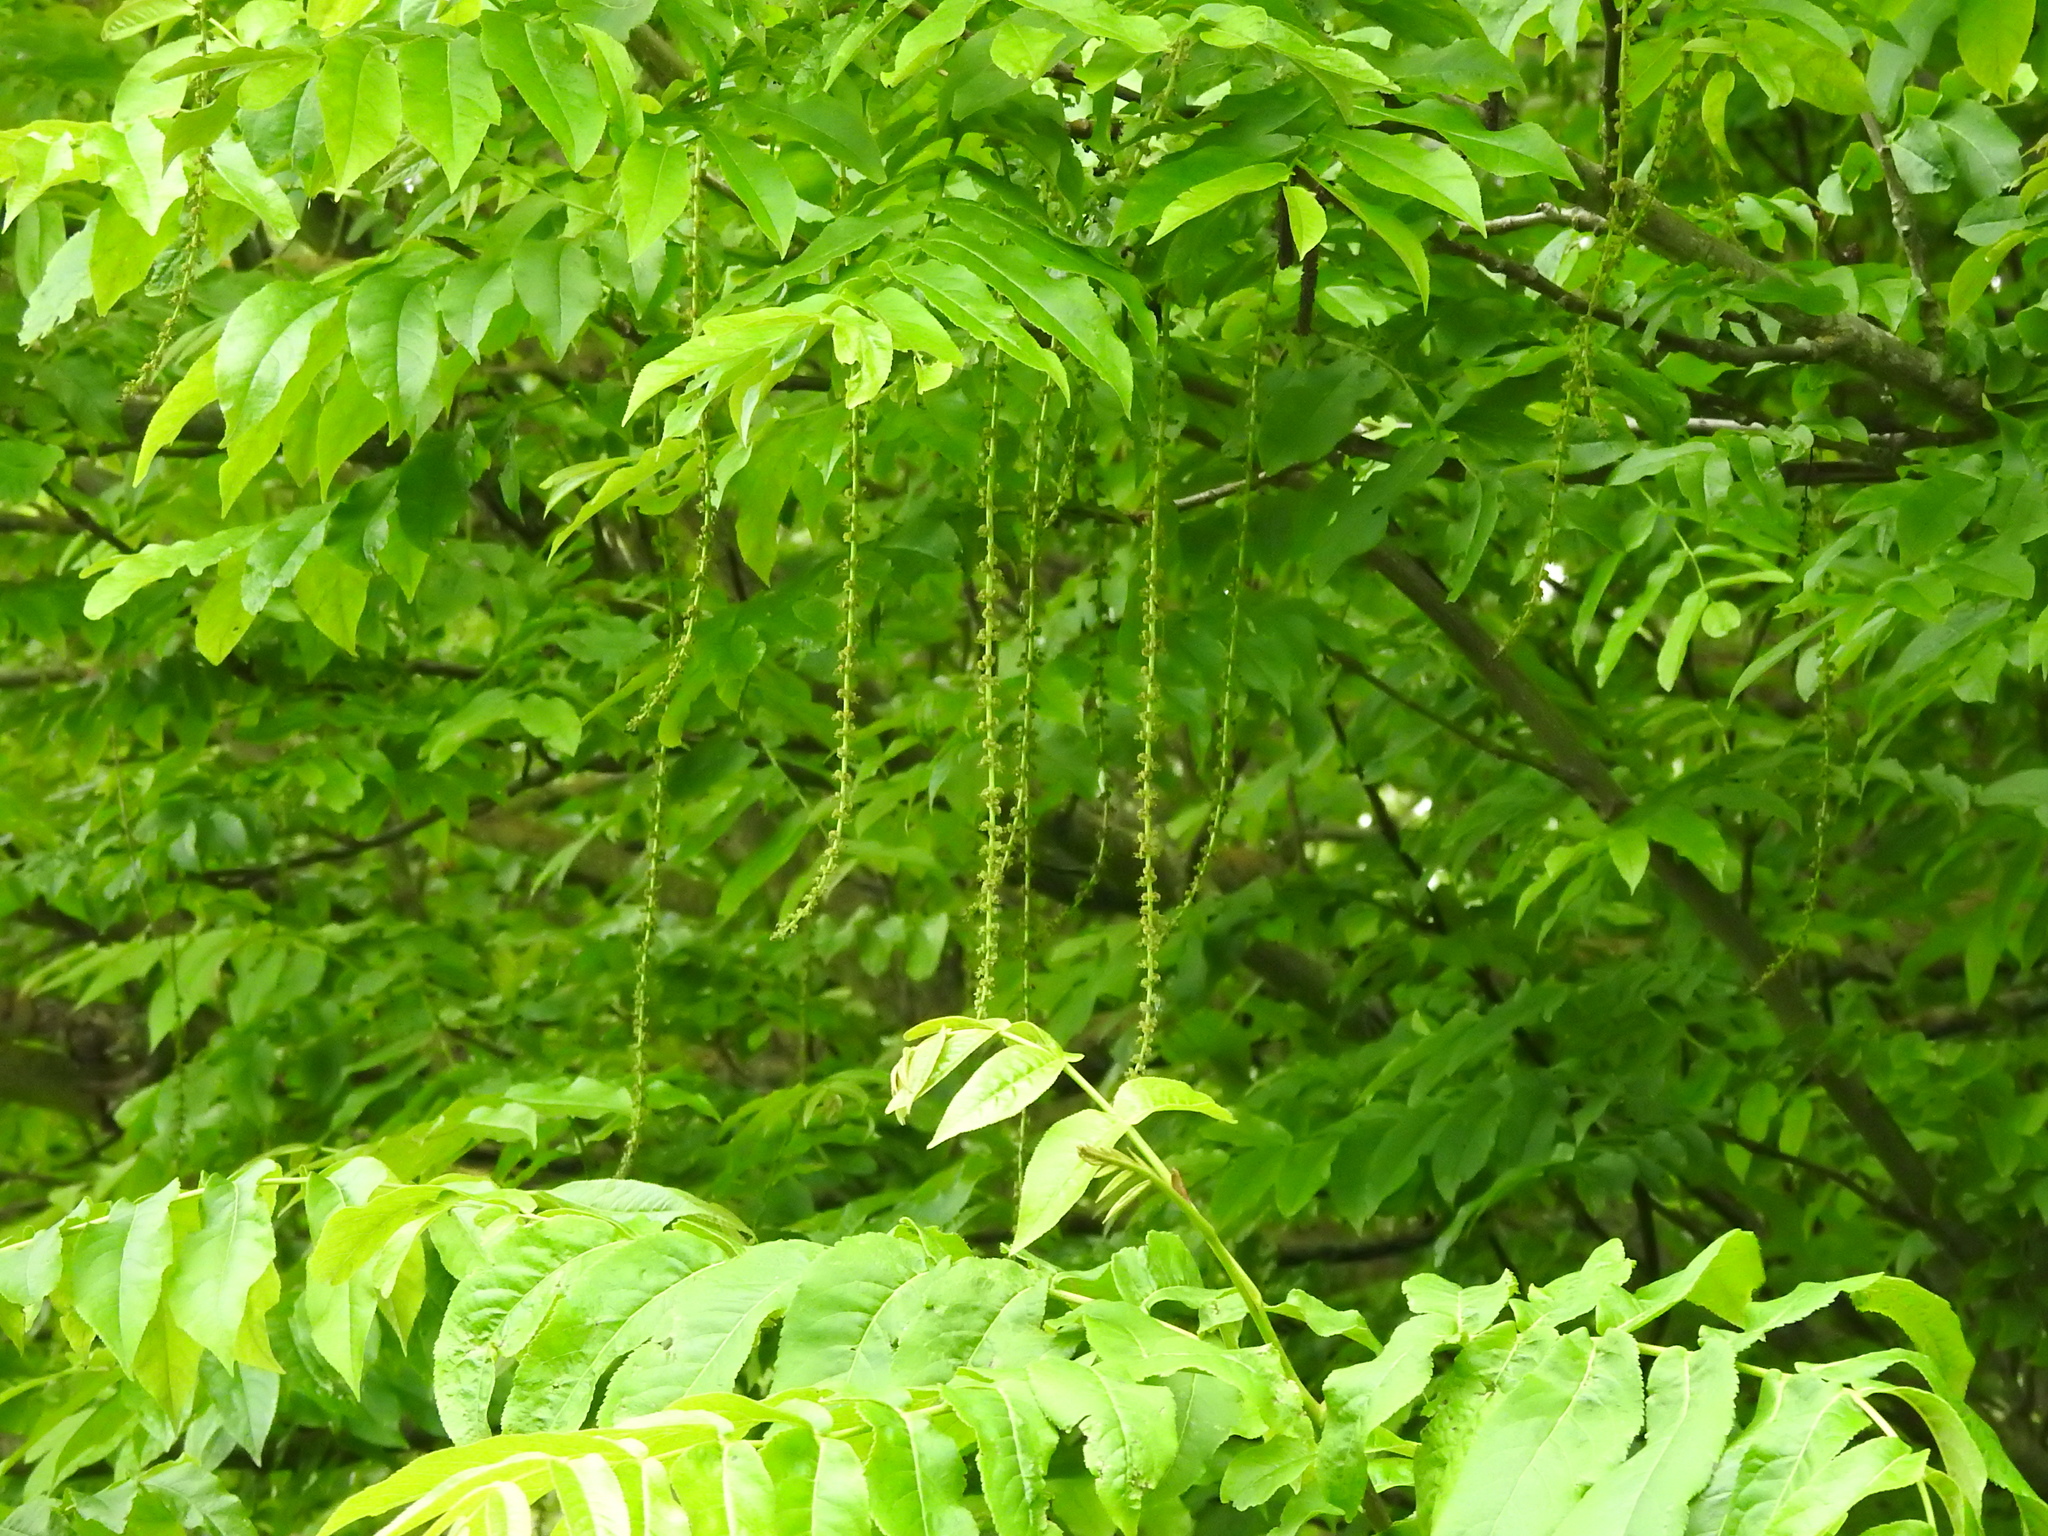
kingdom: Plantae
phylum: Tracheophyta
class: Magnoliopsida
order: Fagales
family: Juglandaceae
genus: Pterocarya
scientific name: Pterocarya fraxinifolia
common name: Caucasian wingnut
